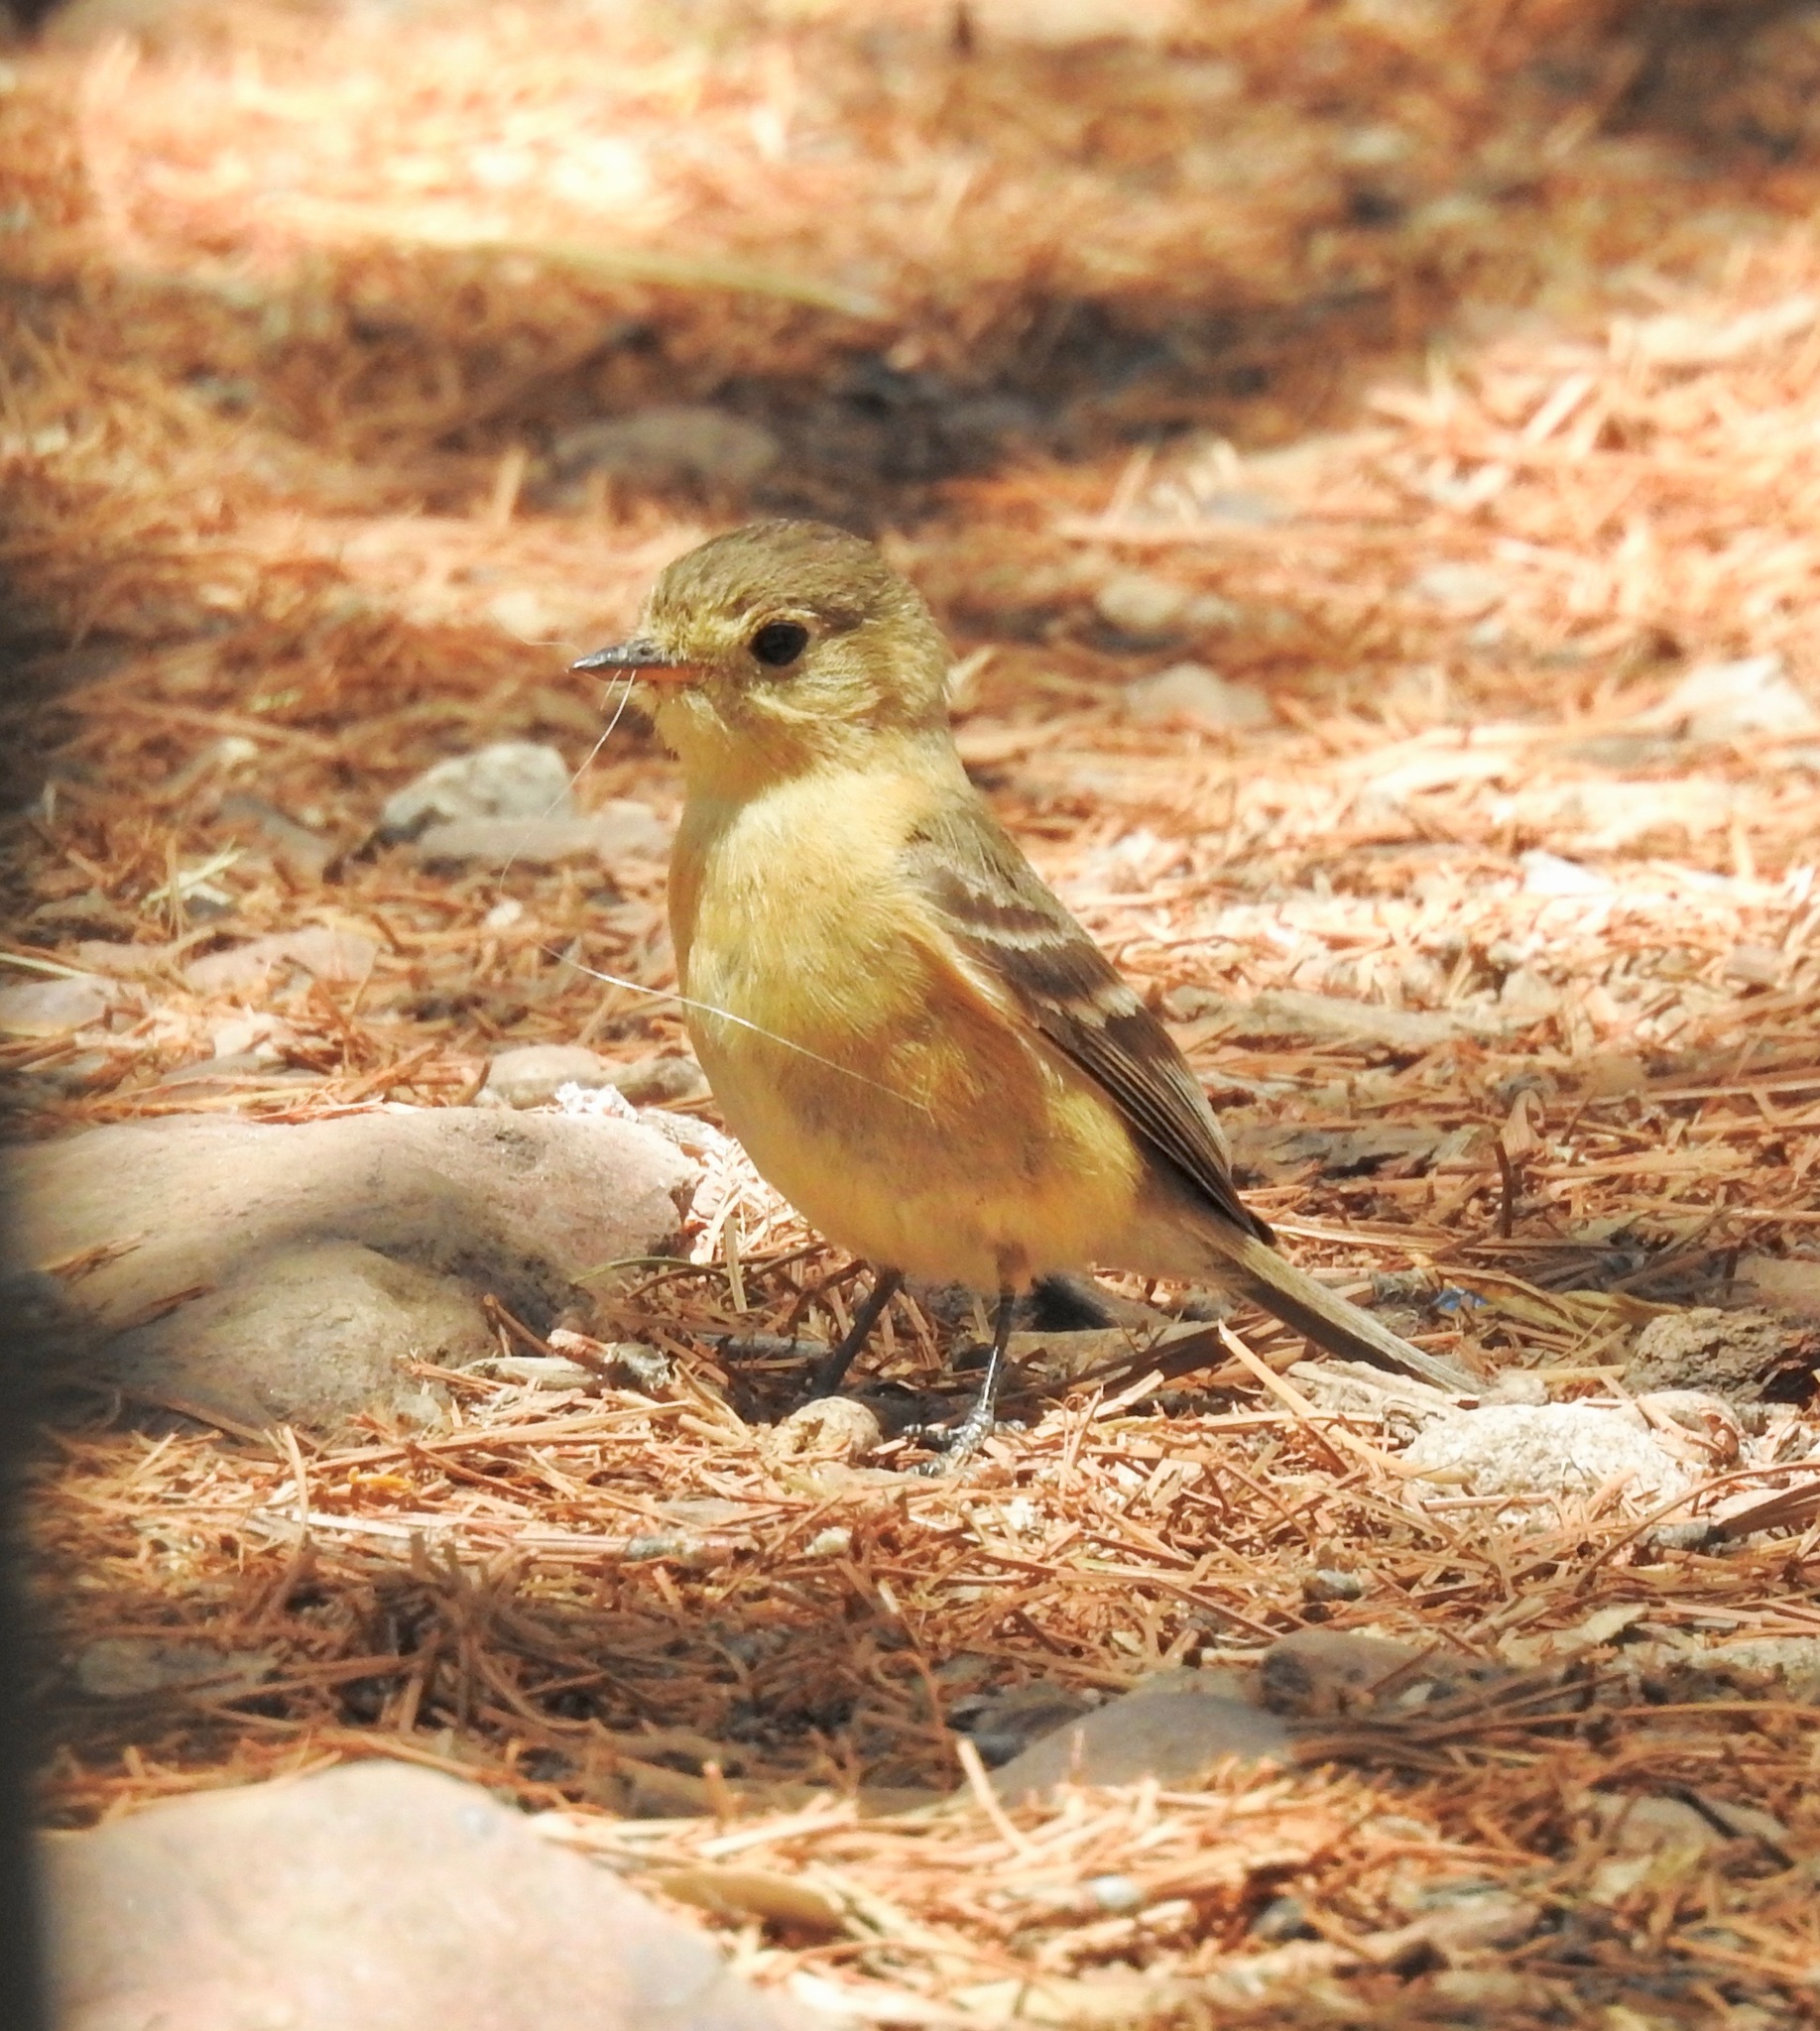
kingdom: Animalia
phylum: Chordata
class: Aves
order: Passeriformes
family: Tyrannidae
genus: Empidonax
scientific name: Empidonax fulvifrons
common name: Buff-breasted flycatcher
